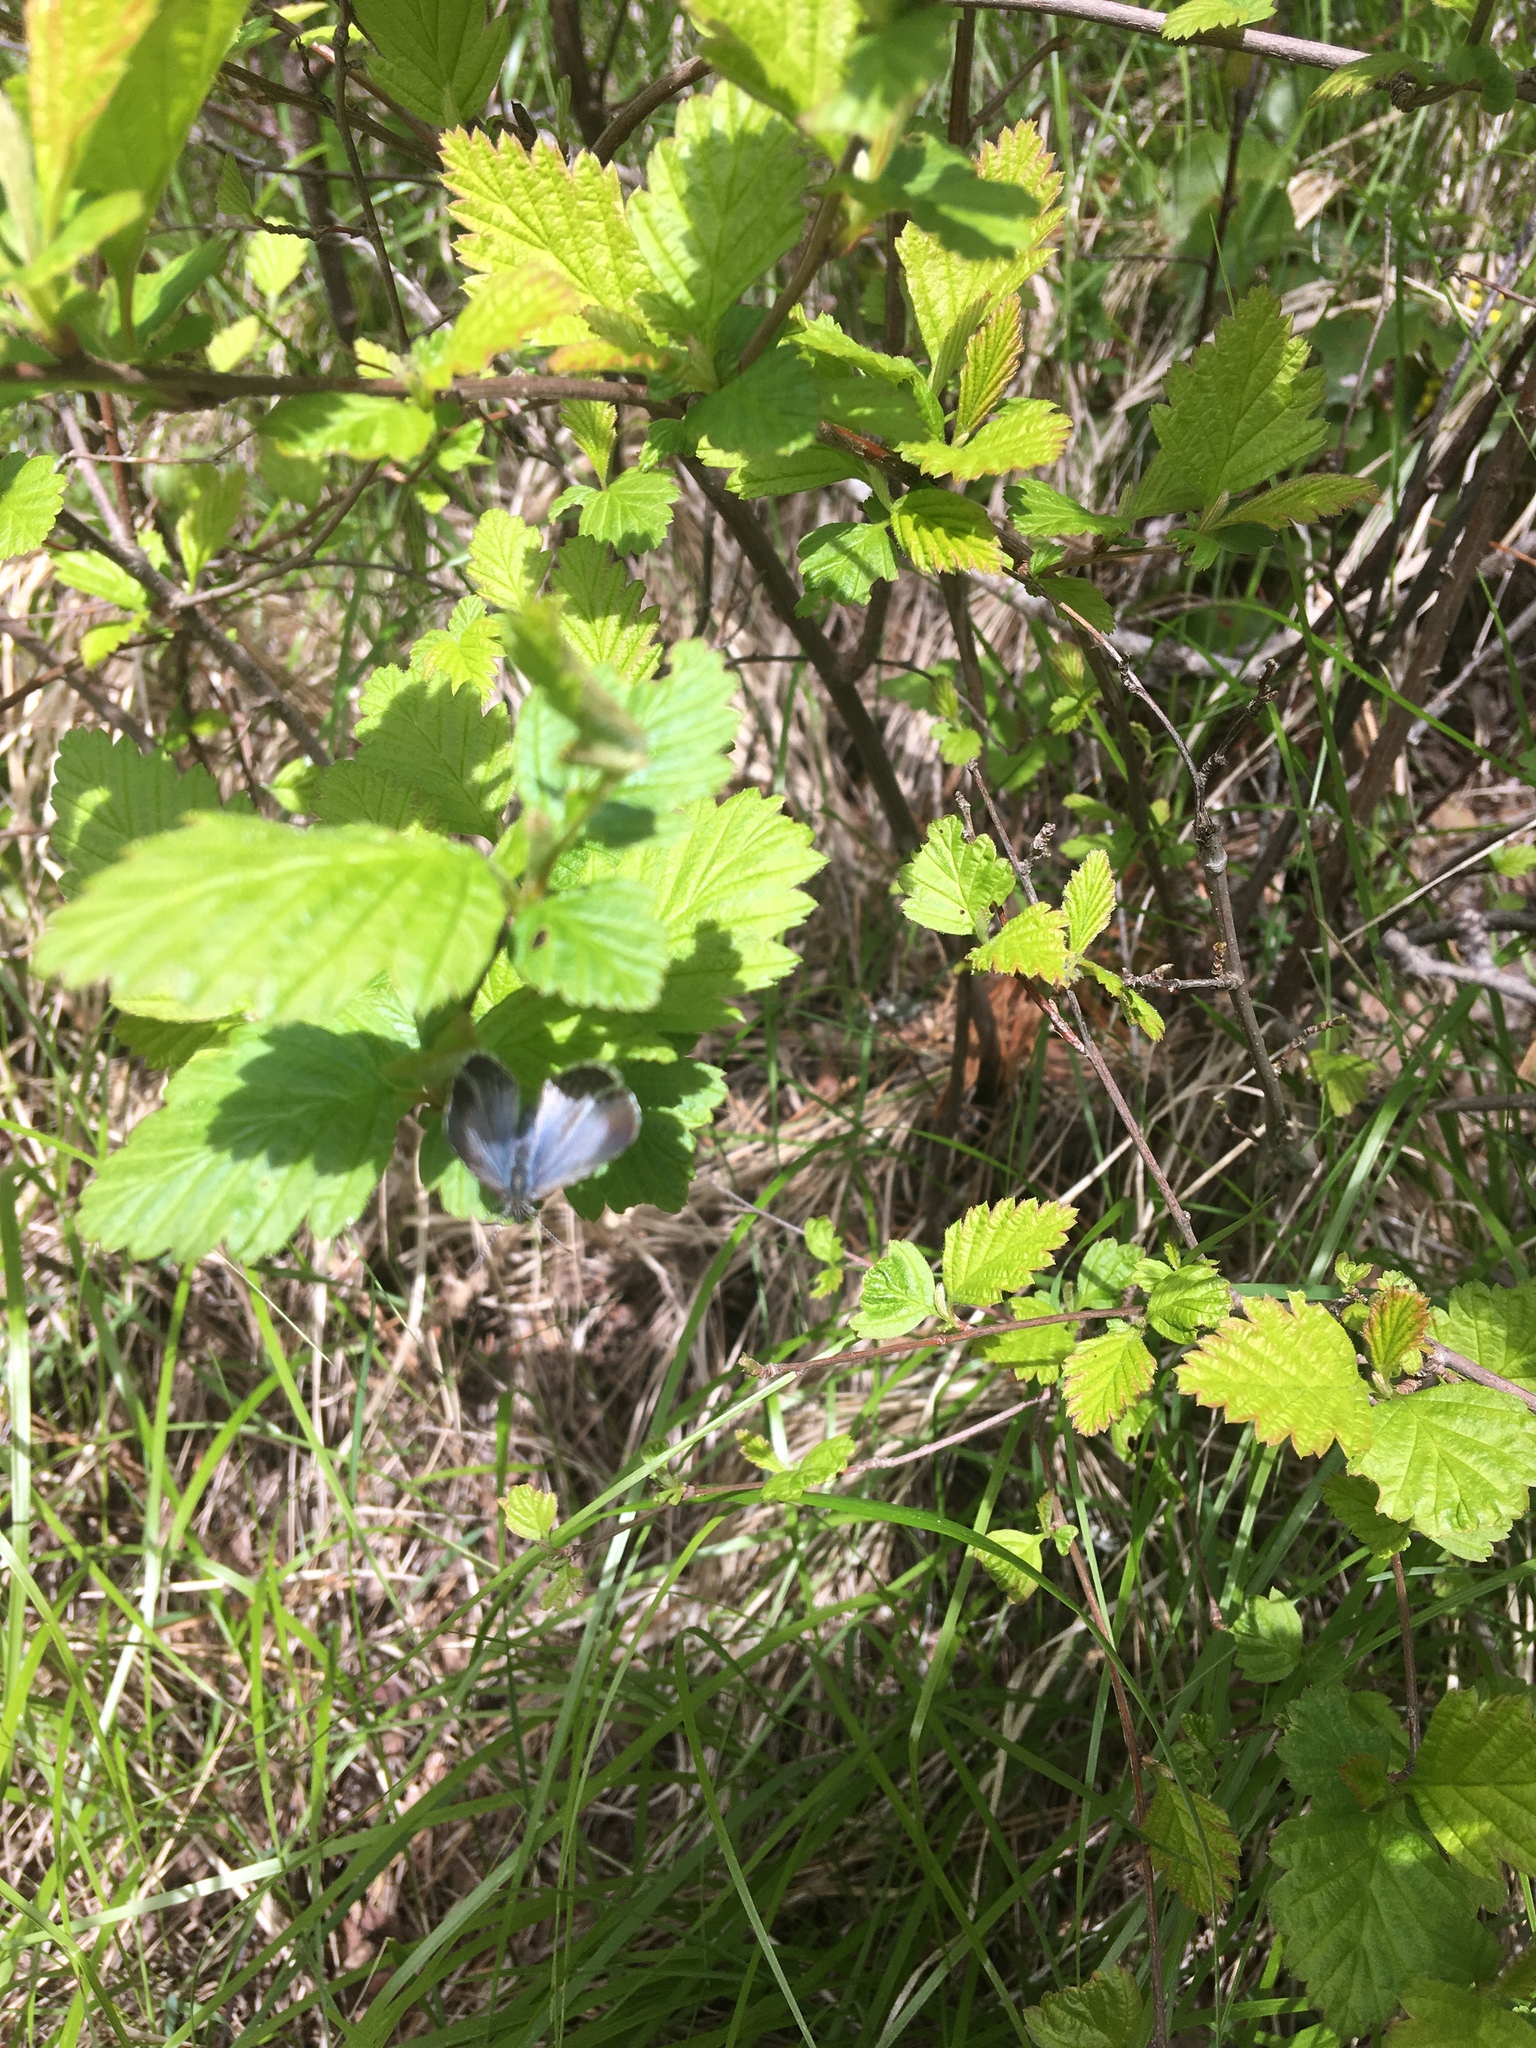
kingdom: Plantae
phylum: Tracheophyta
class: Magnoliopsida
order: Rosales
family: Rosaceae
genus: Holodiscus
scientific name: Holodiscus discolor
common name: Oceanspray
